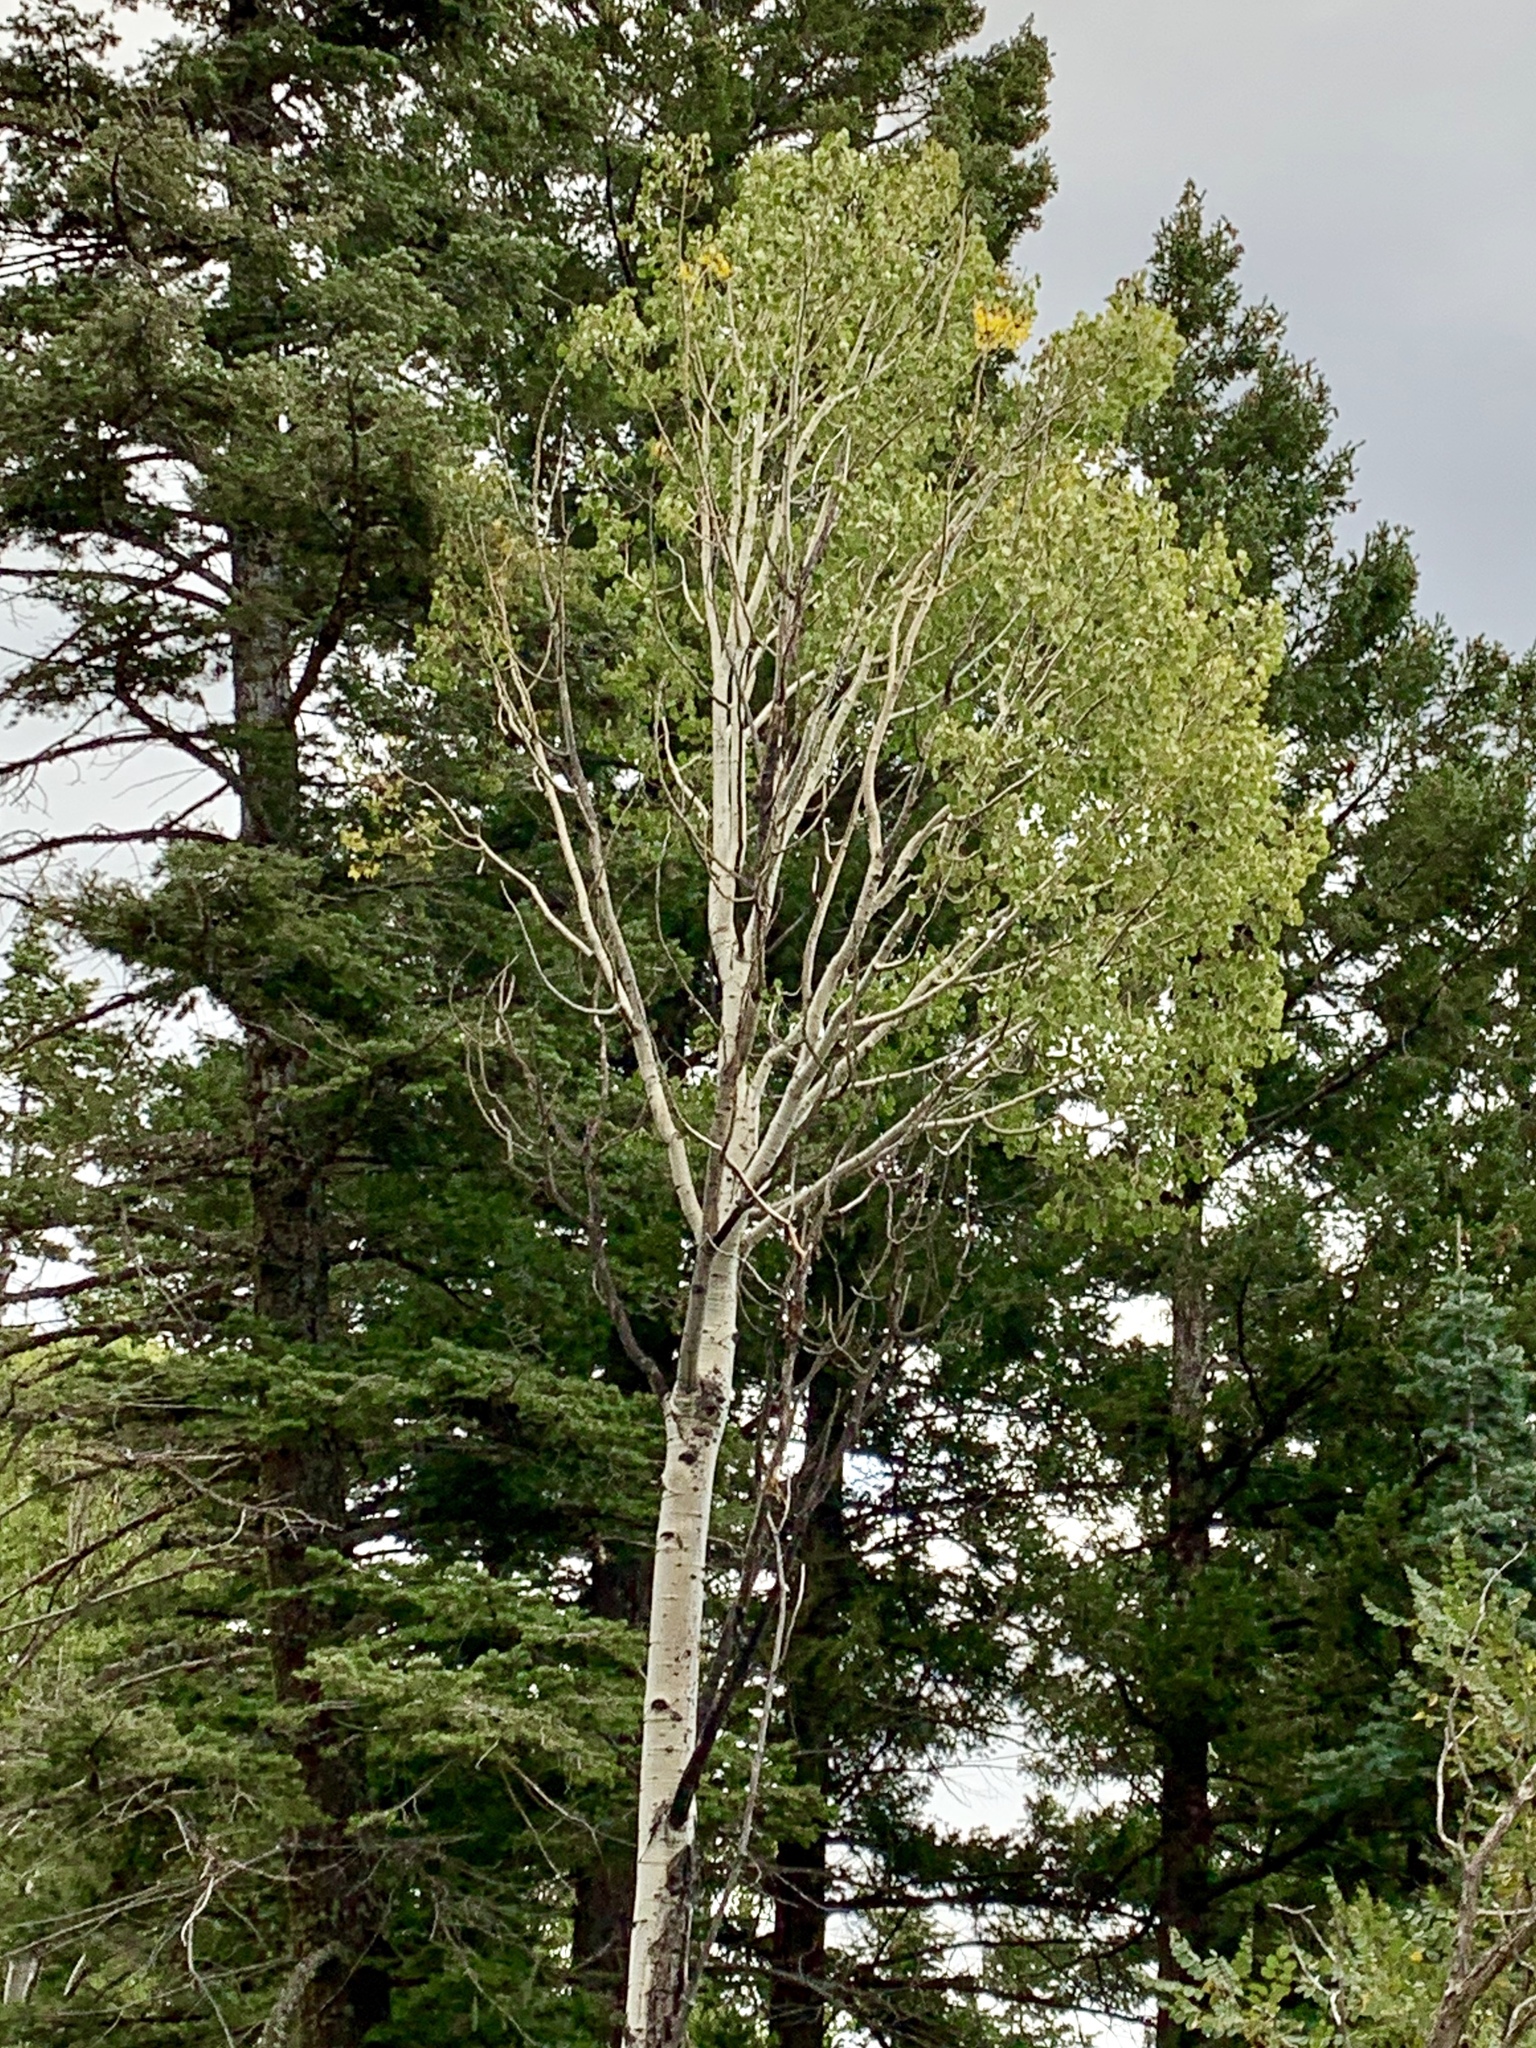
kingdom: Plantae
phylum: Tracheophyta
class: Magnoliopsida
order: Malpighiales
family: Salicaceae
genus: Populus
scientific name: Populus tremuloides
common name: Quaking aspen
